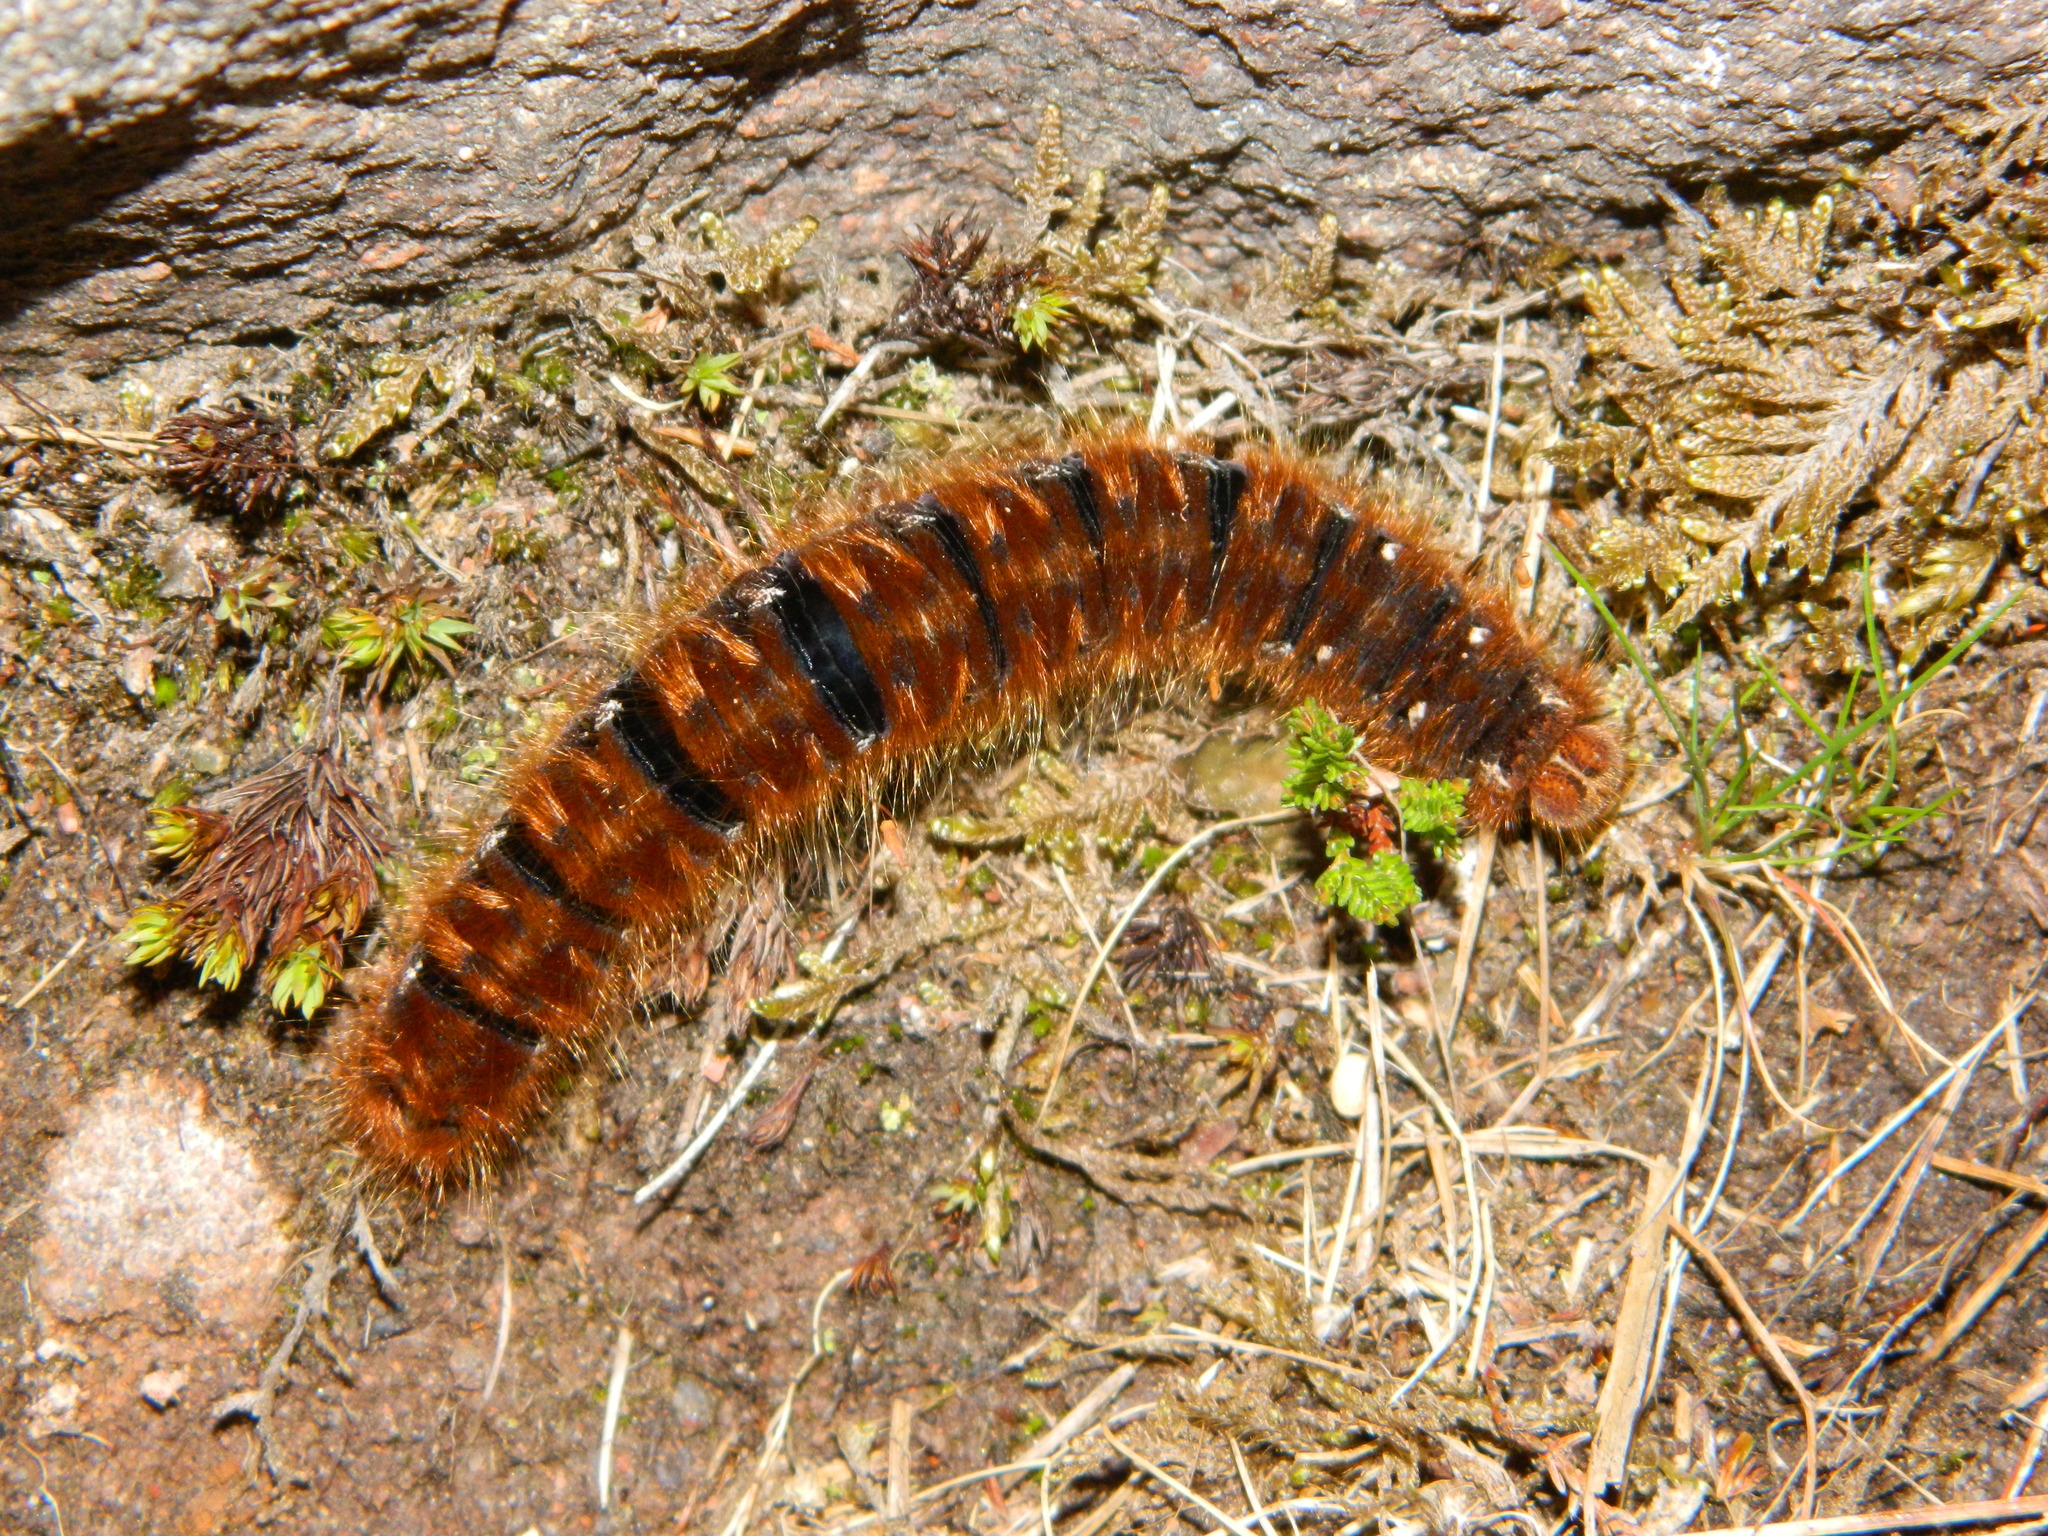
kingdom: Animalia
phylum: Arthropoda
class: Insecta
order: Lepidoptera
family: Lasiocampidae
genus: Lasiocampa
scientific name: Lasiocampa quercus
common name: Oak eggar
